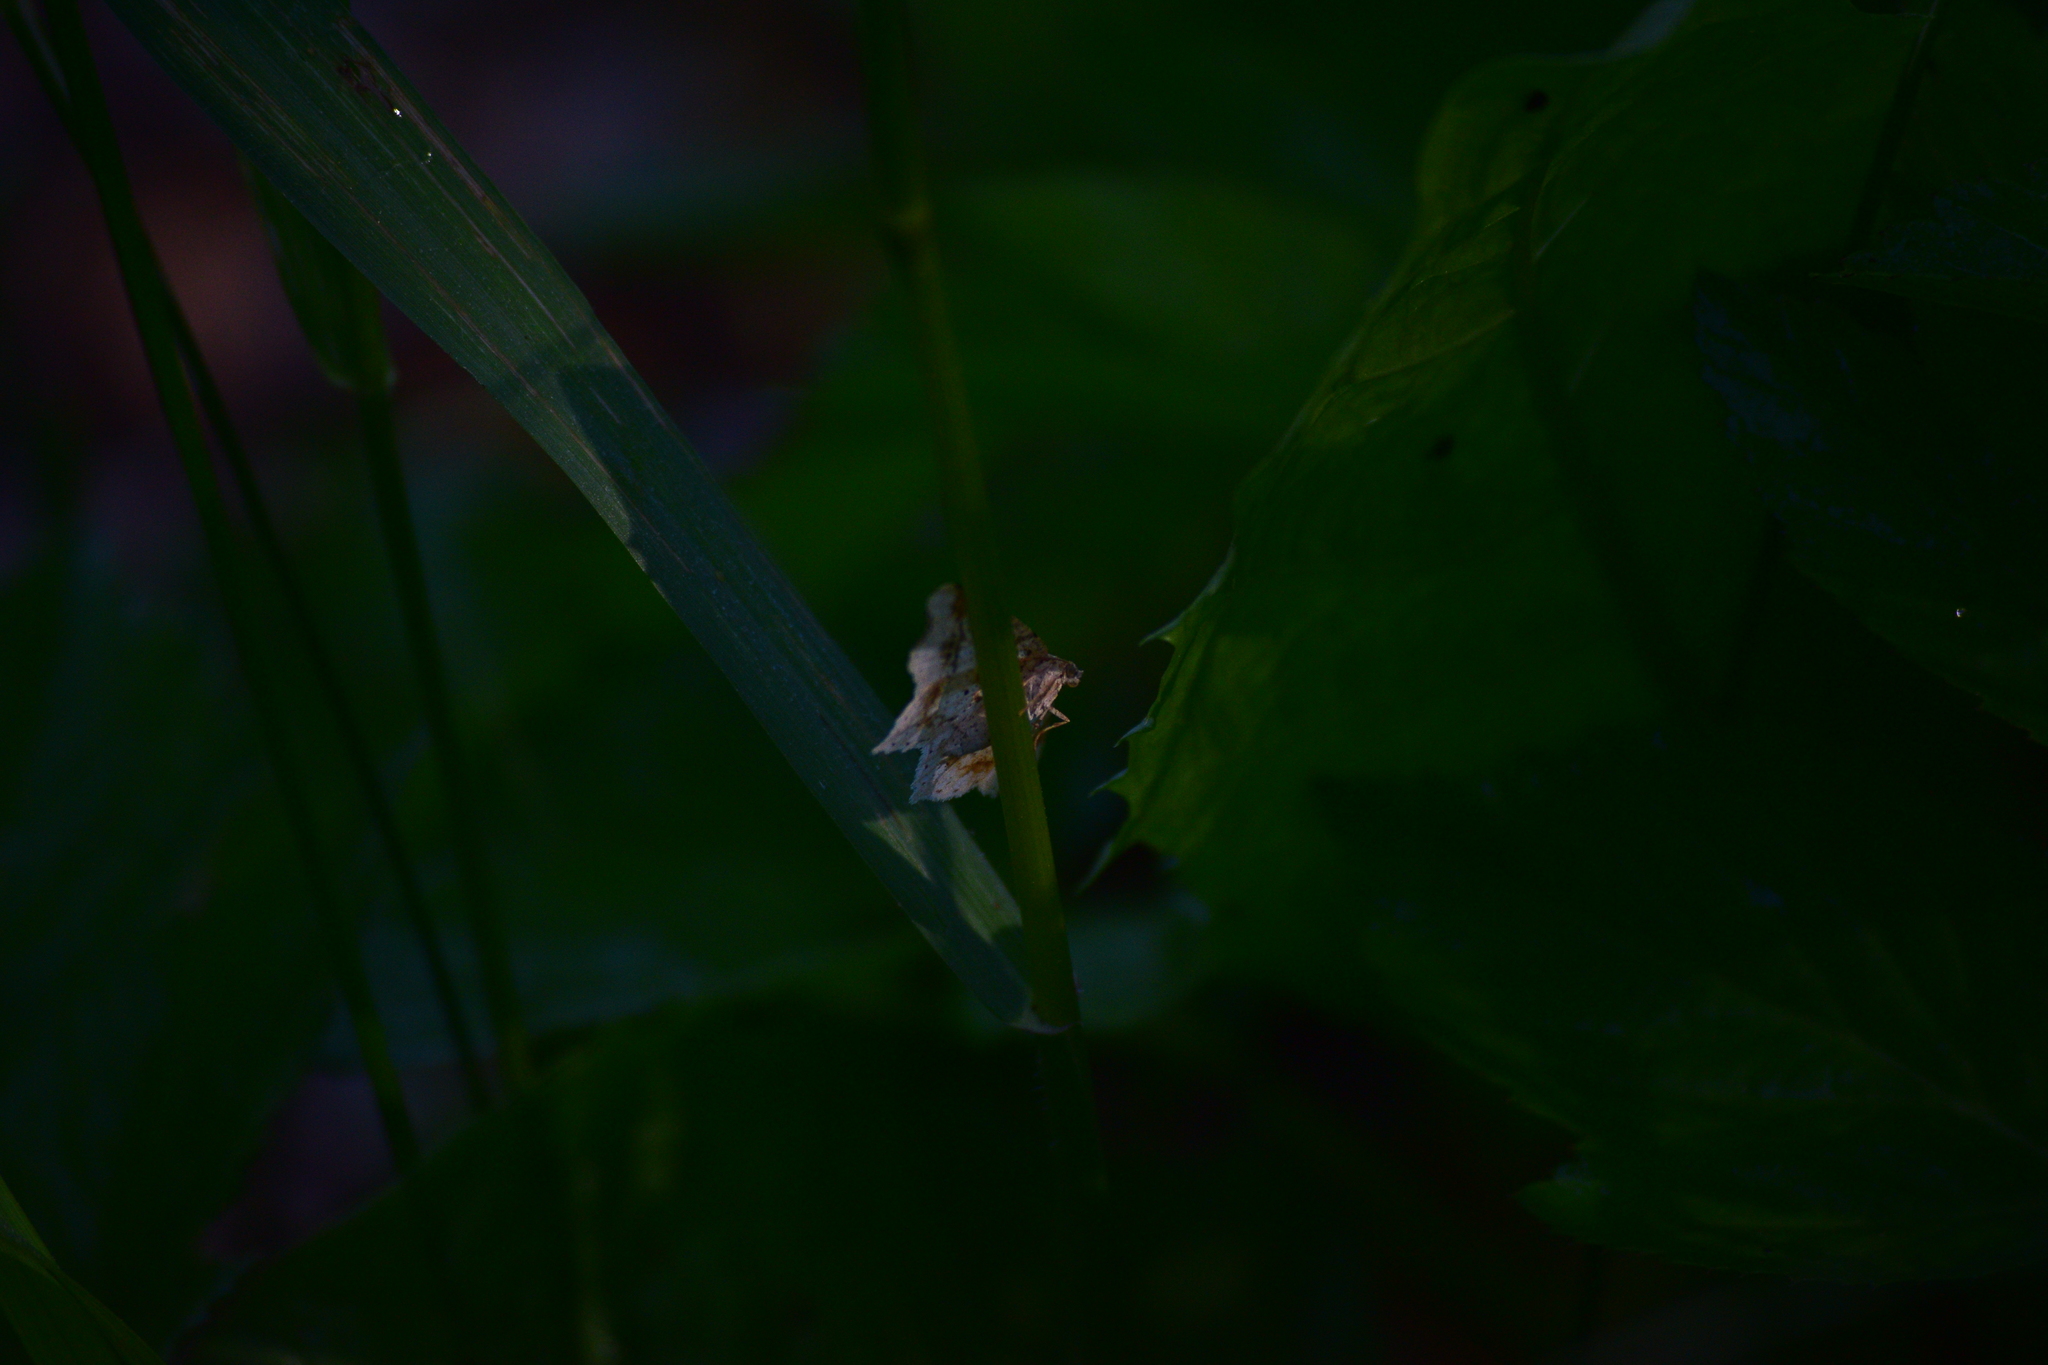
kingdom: Animalia
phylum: Arthropoda
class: Insecta
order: Lepidoptera
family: Geometridae
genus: Macaria
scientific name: Macaria aemulataria
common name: Common angle
